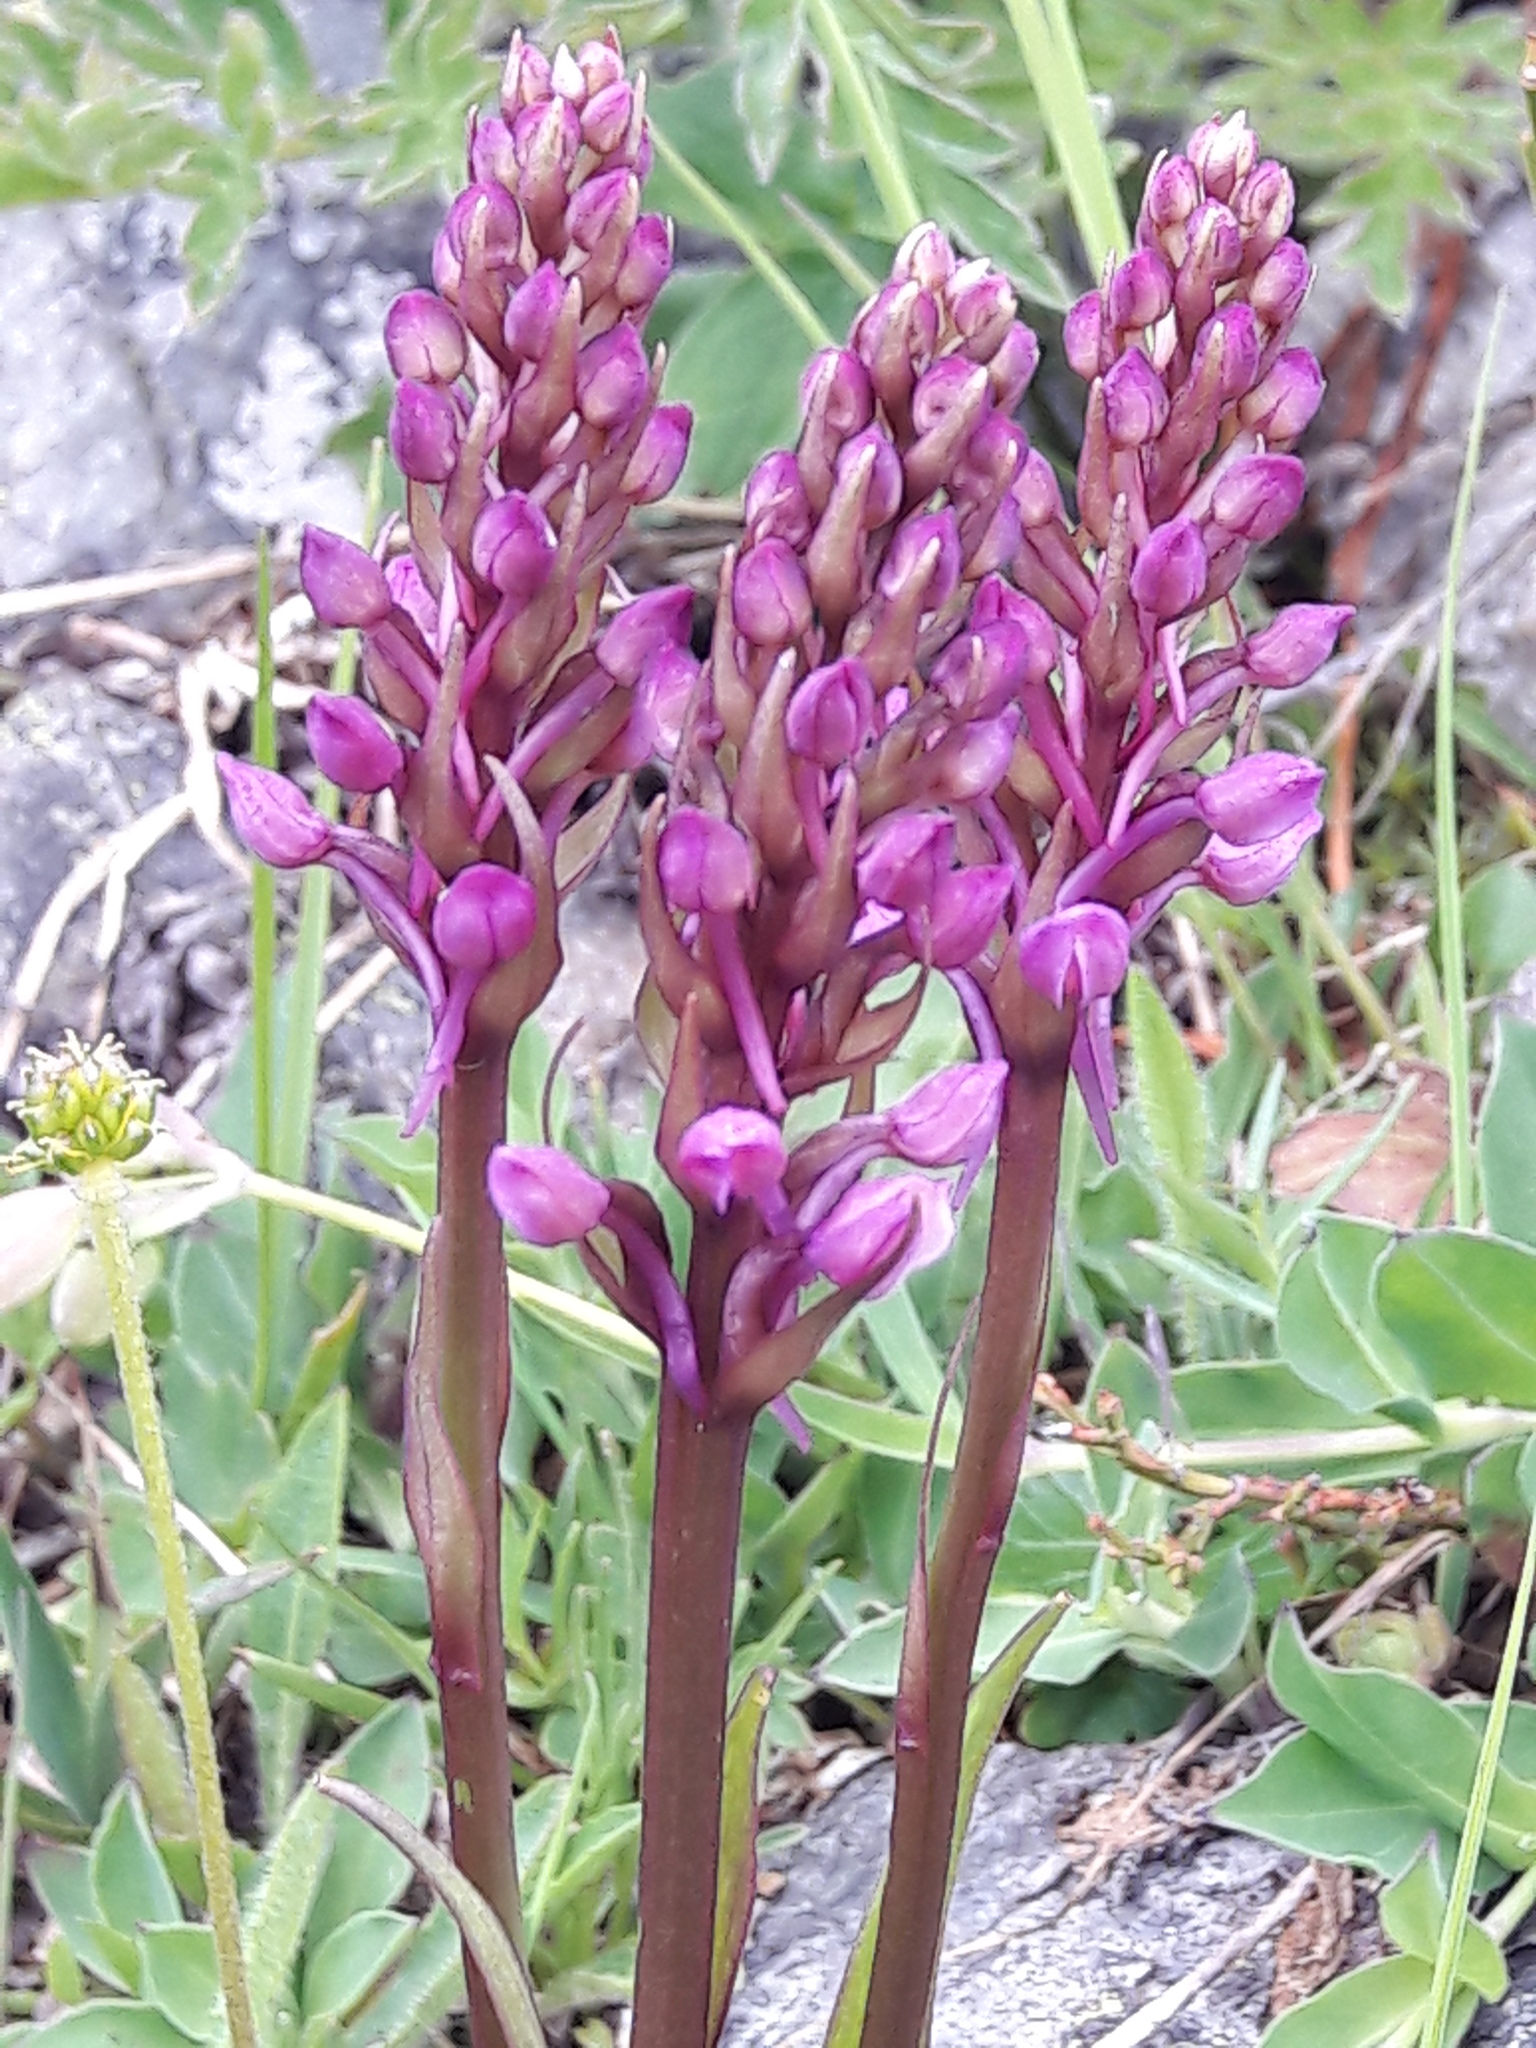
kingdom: Plantae
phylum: Tracheophyta
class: Liliopsida
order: Asparagales
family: Orchidaceae
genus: Gymnadenia
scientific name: Gymnadenia conopsea
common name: Fragrant orchid
